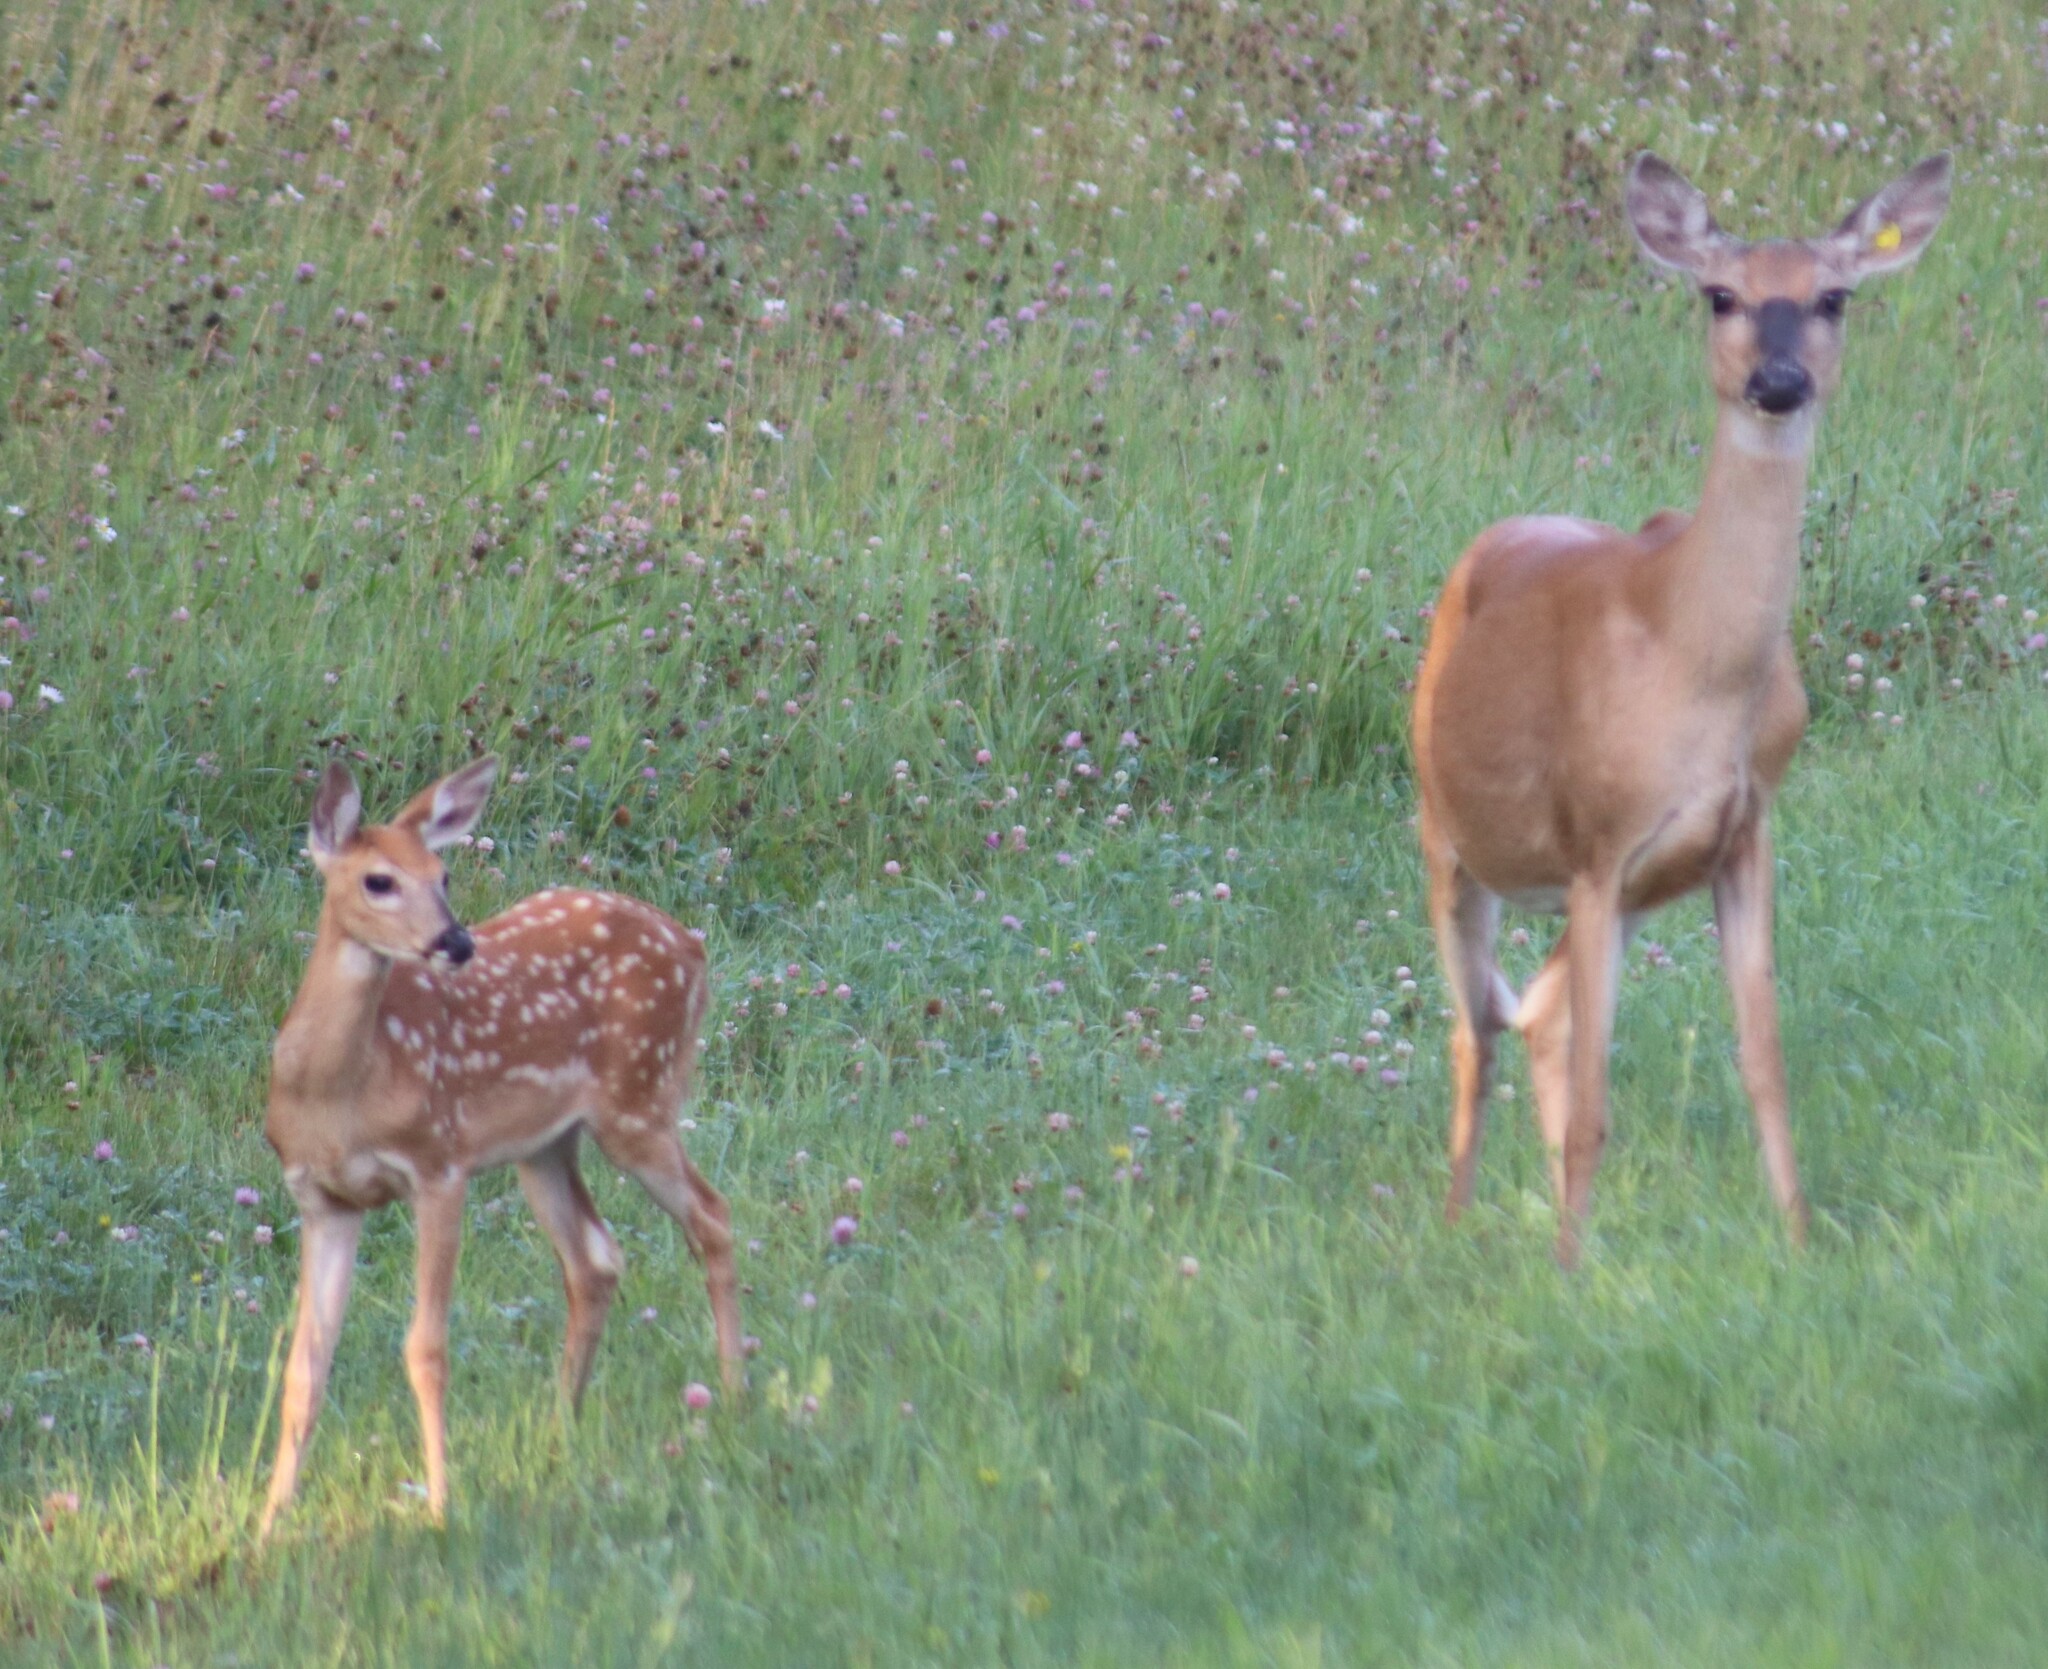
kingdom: Animalia
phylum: Chordata
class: Mammalia
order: Artiodactyla
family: Cervidae
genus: Odocoileus
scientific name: Odocoileus virginianus
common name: White-tailed deer
